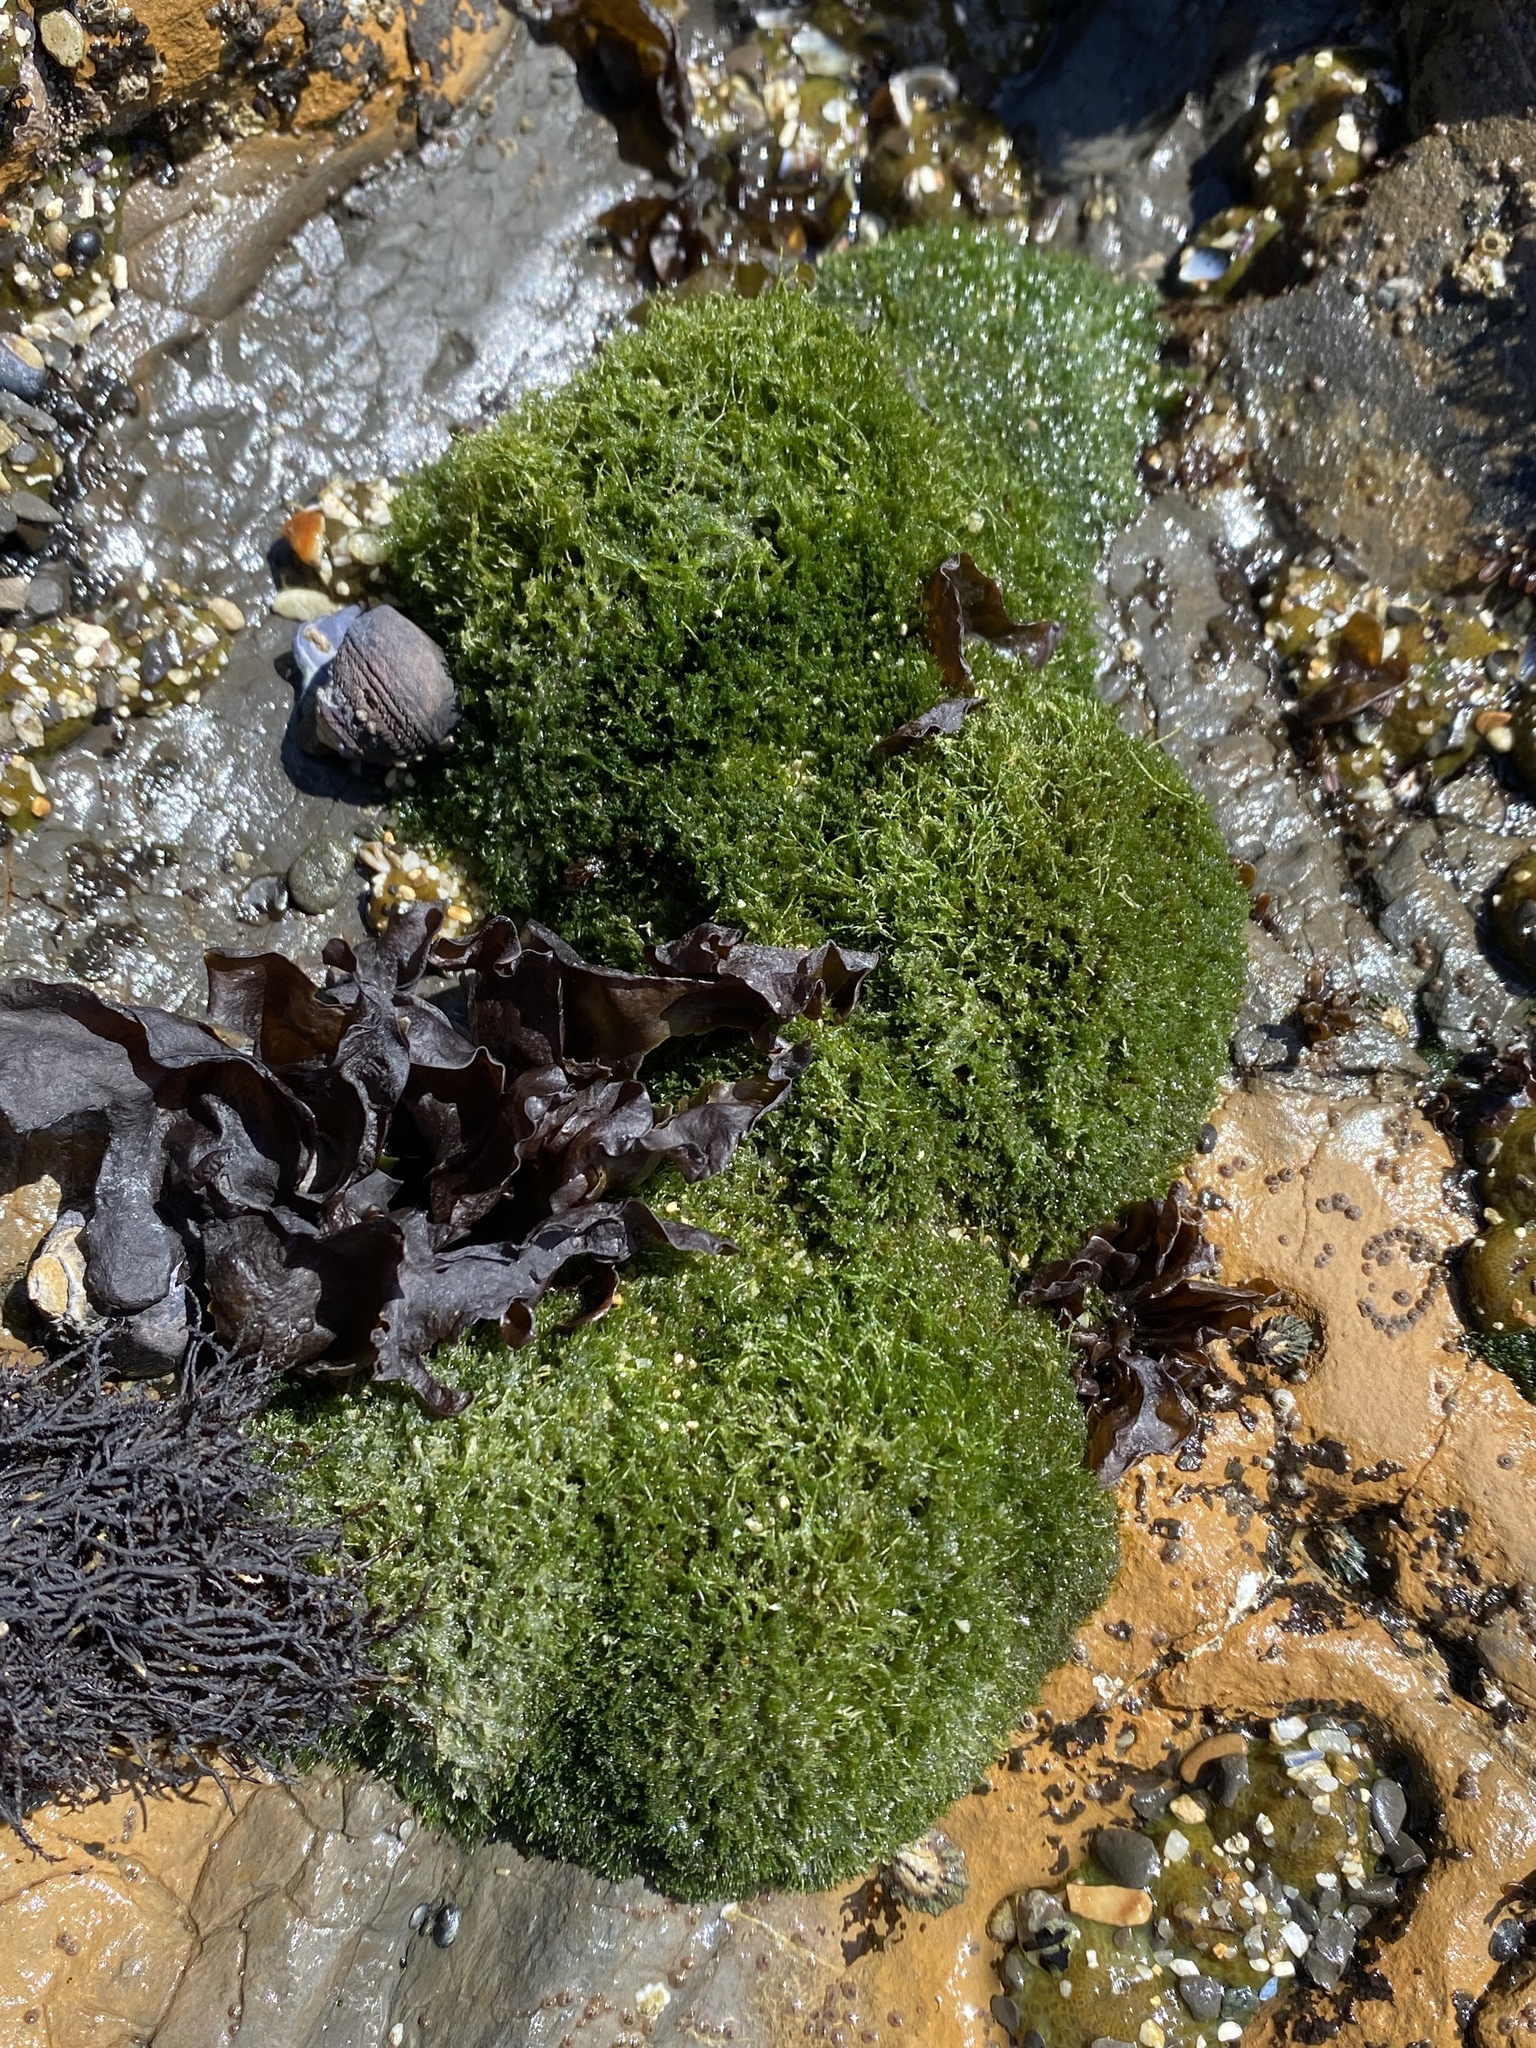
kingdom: Plantae
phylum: Chlorophyta
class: Ulvophyceae
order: Cladophorales
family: Cladophoraceae
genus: Cladophora
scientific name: Cladophora columbiana
